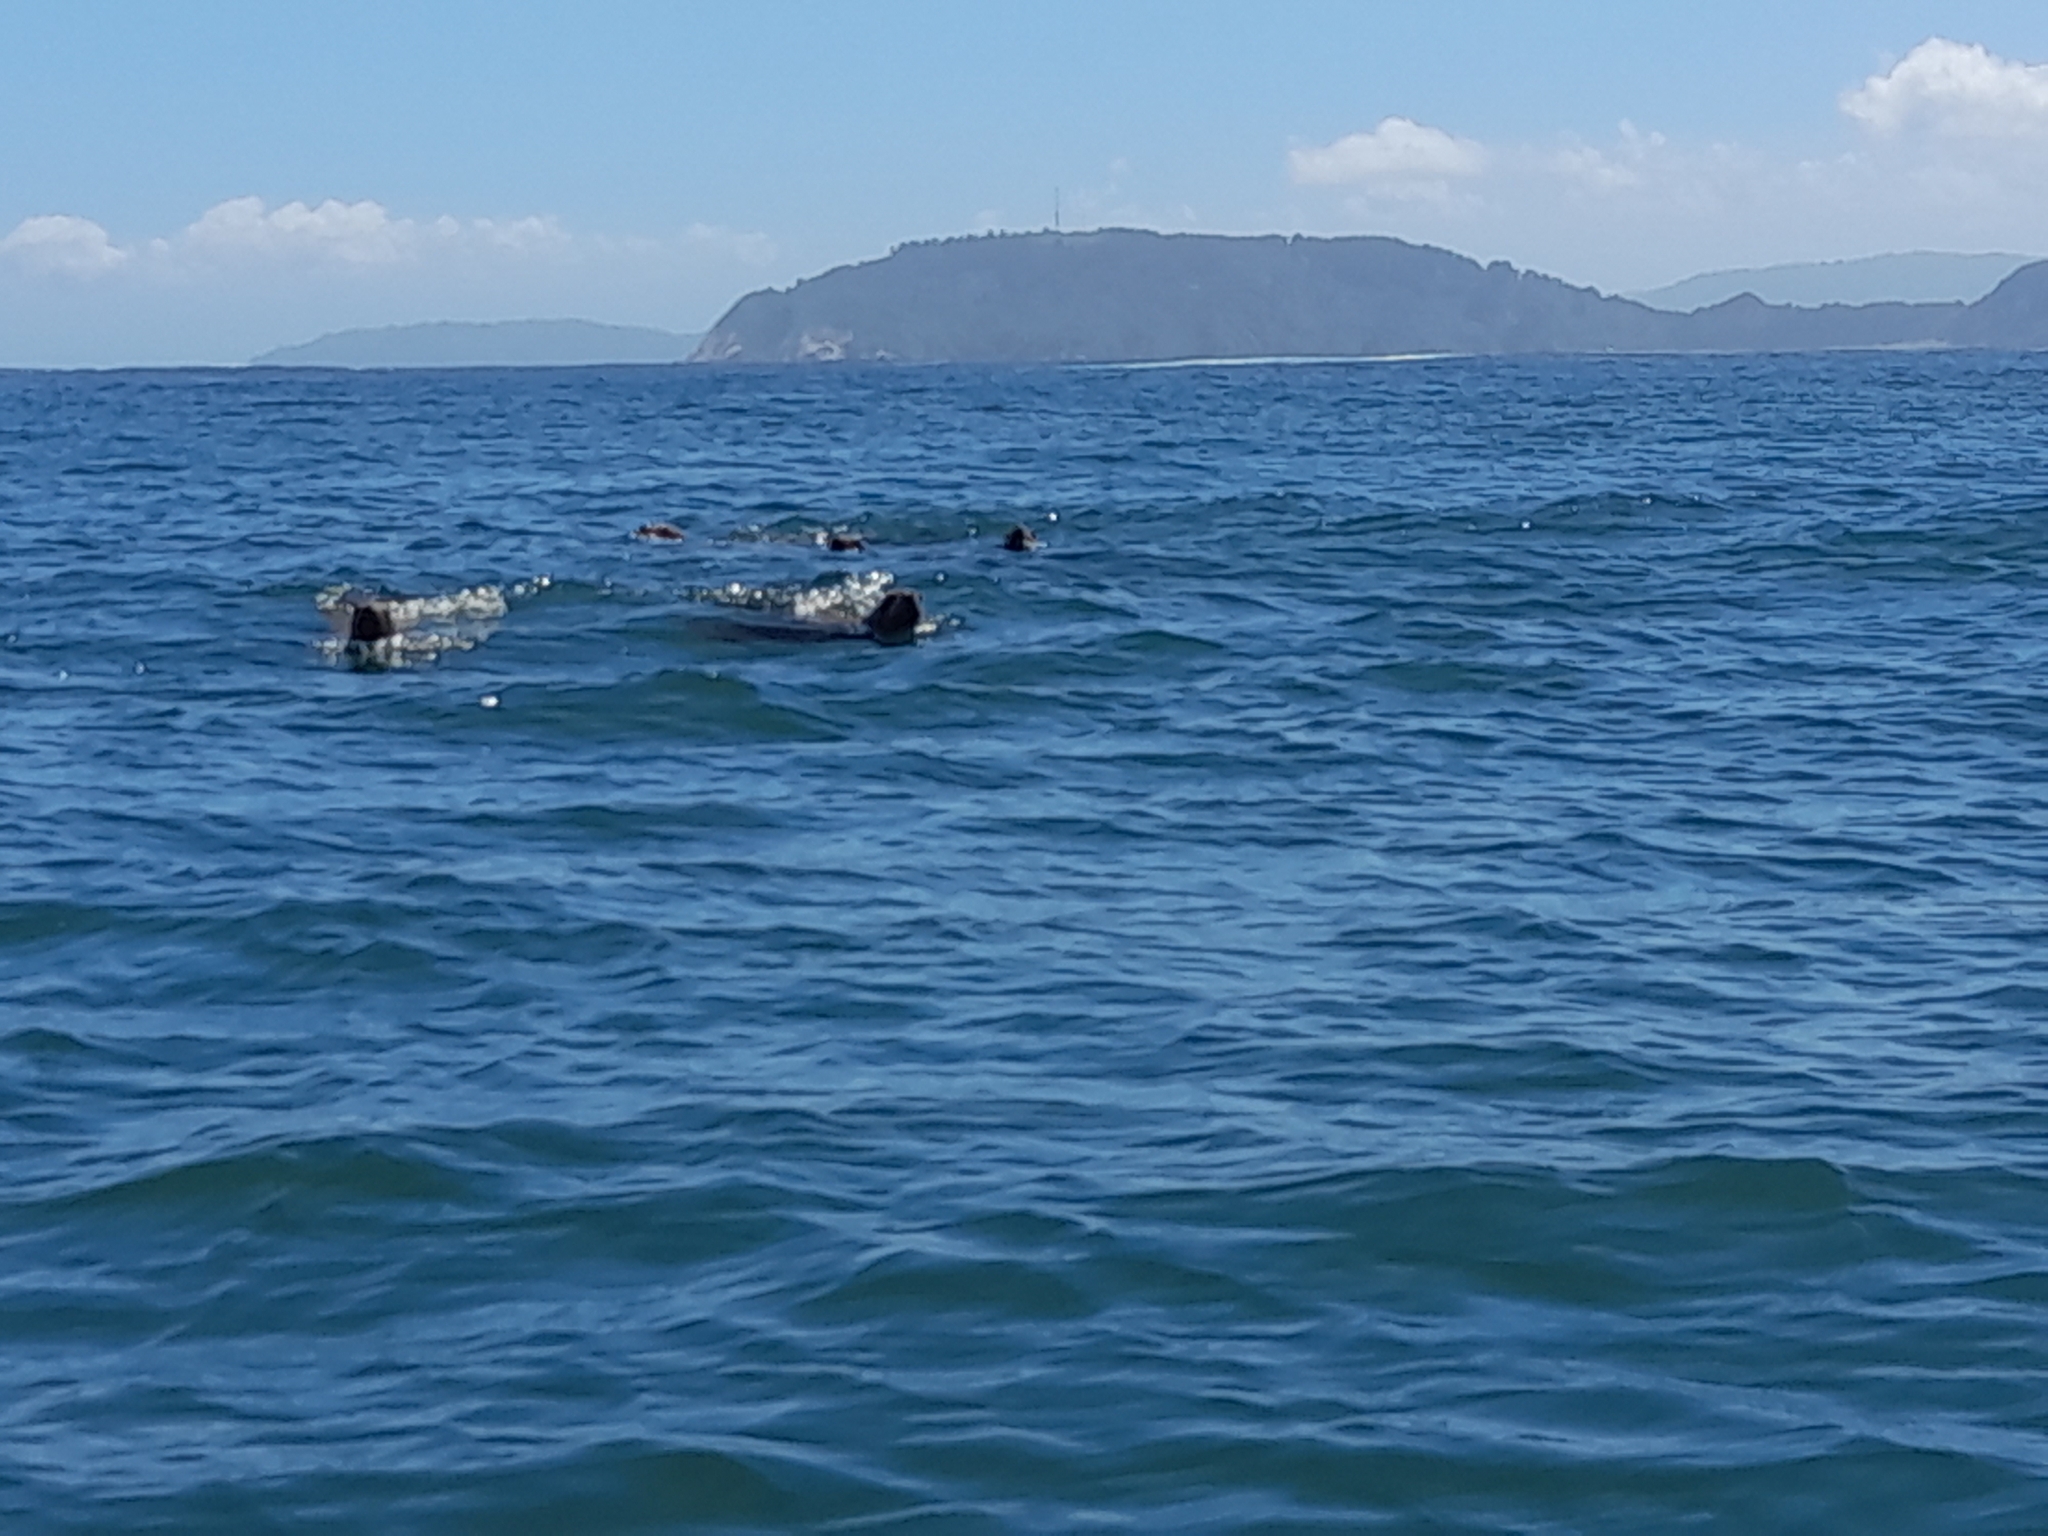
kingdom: Animalia
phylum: Chordata
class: Mammalia
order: Carnivora
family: Otariidae
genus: Otaria
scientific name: Otaria byronia
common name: South american sea lion
